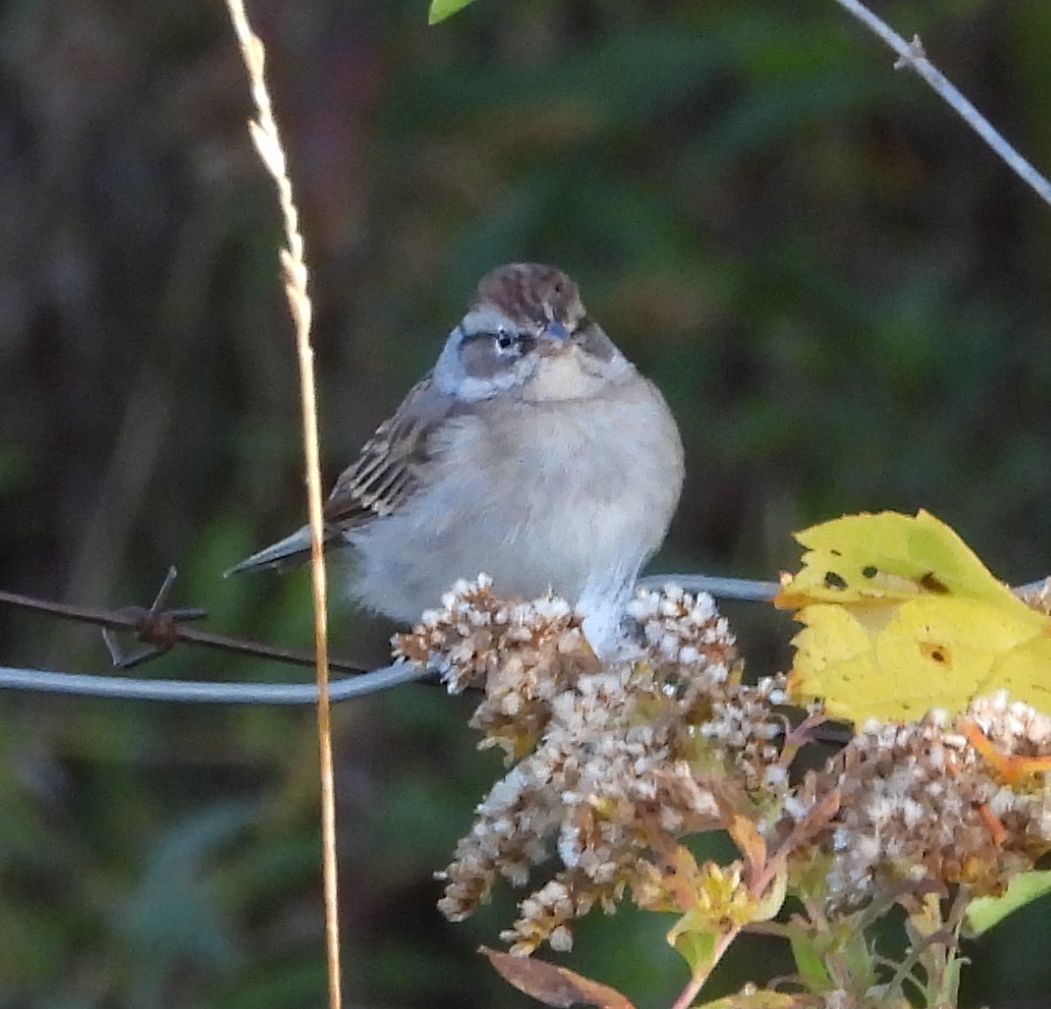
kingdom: Animalia
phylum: Chordata
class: Aves
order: Passeriformes
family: Passerellidae
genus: Spizella
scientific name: Spizella passerina
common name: Chipping sparrow
